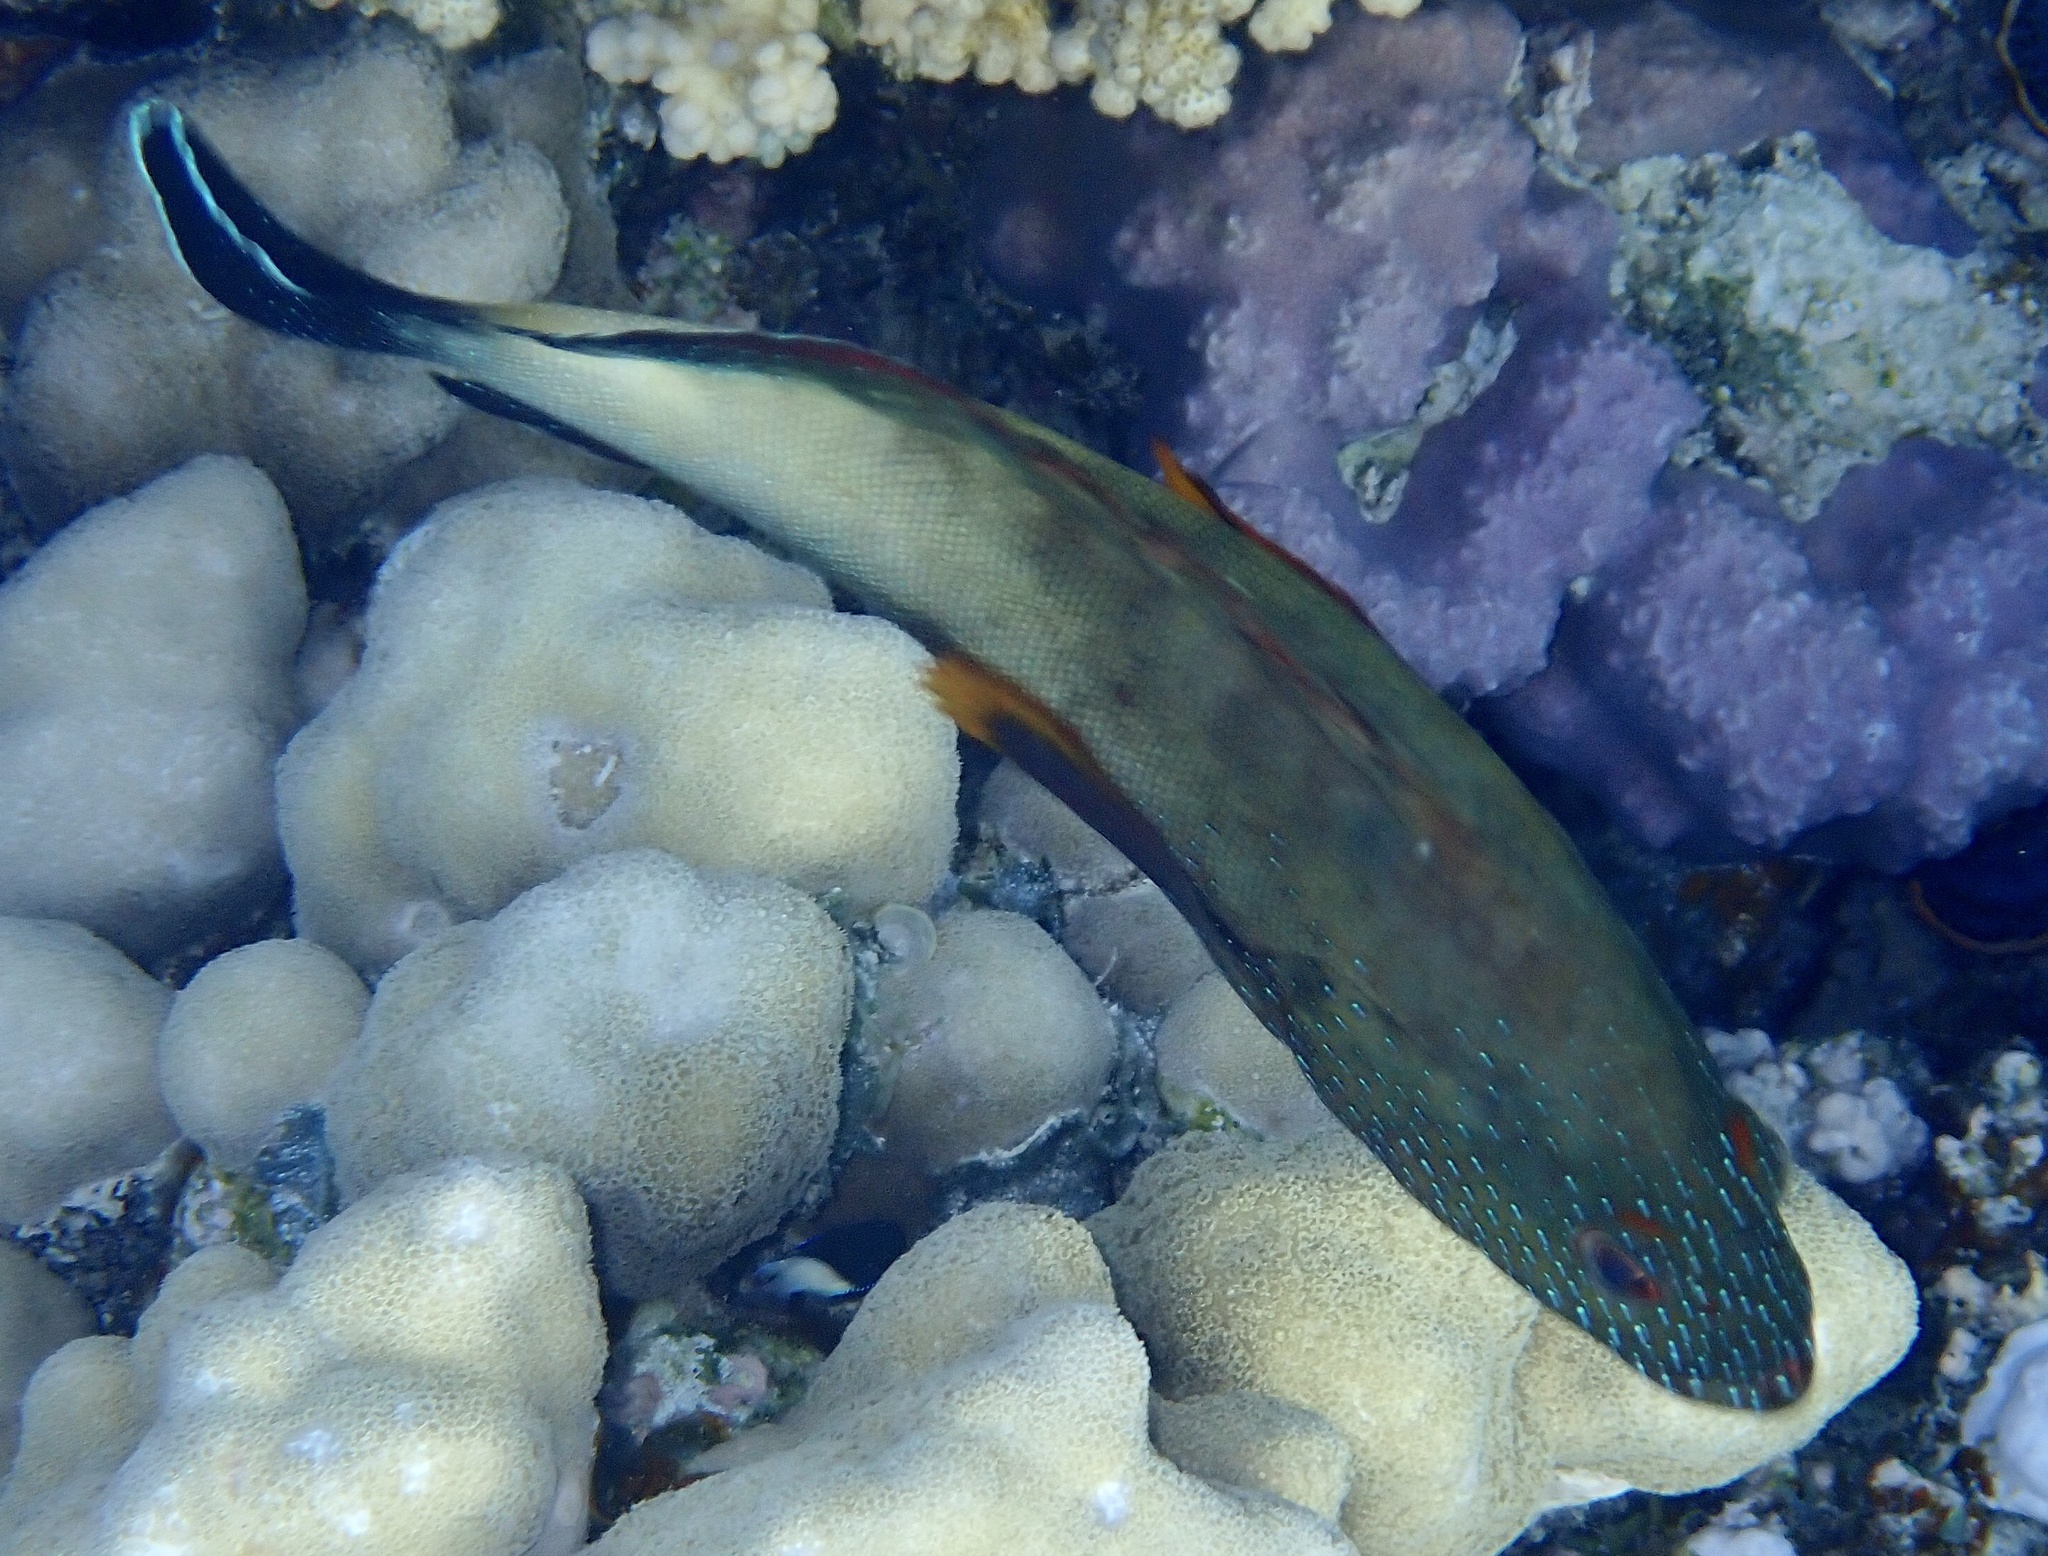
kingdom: Animalia
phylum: Chordata
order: Perciformes
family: Serranidae
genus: Cephalopholis
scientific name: Cephalopholis hemistiktos
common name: Halfspotted hind
